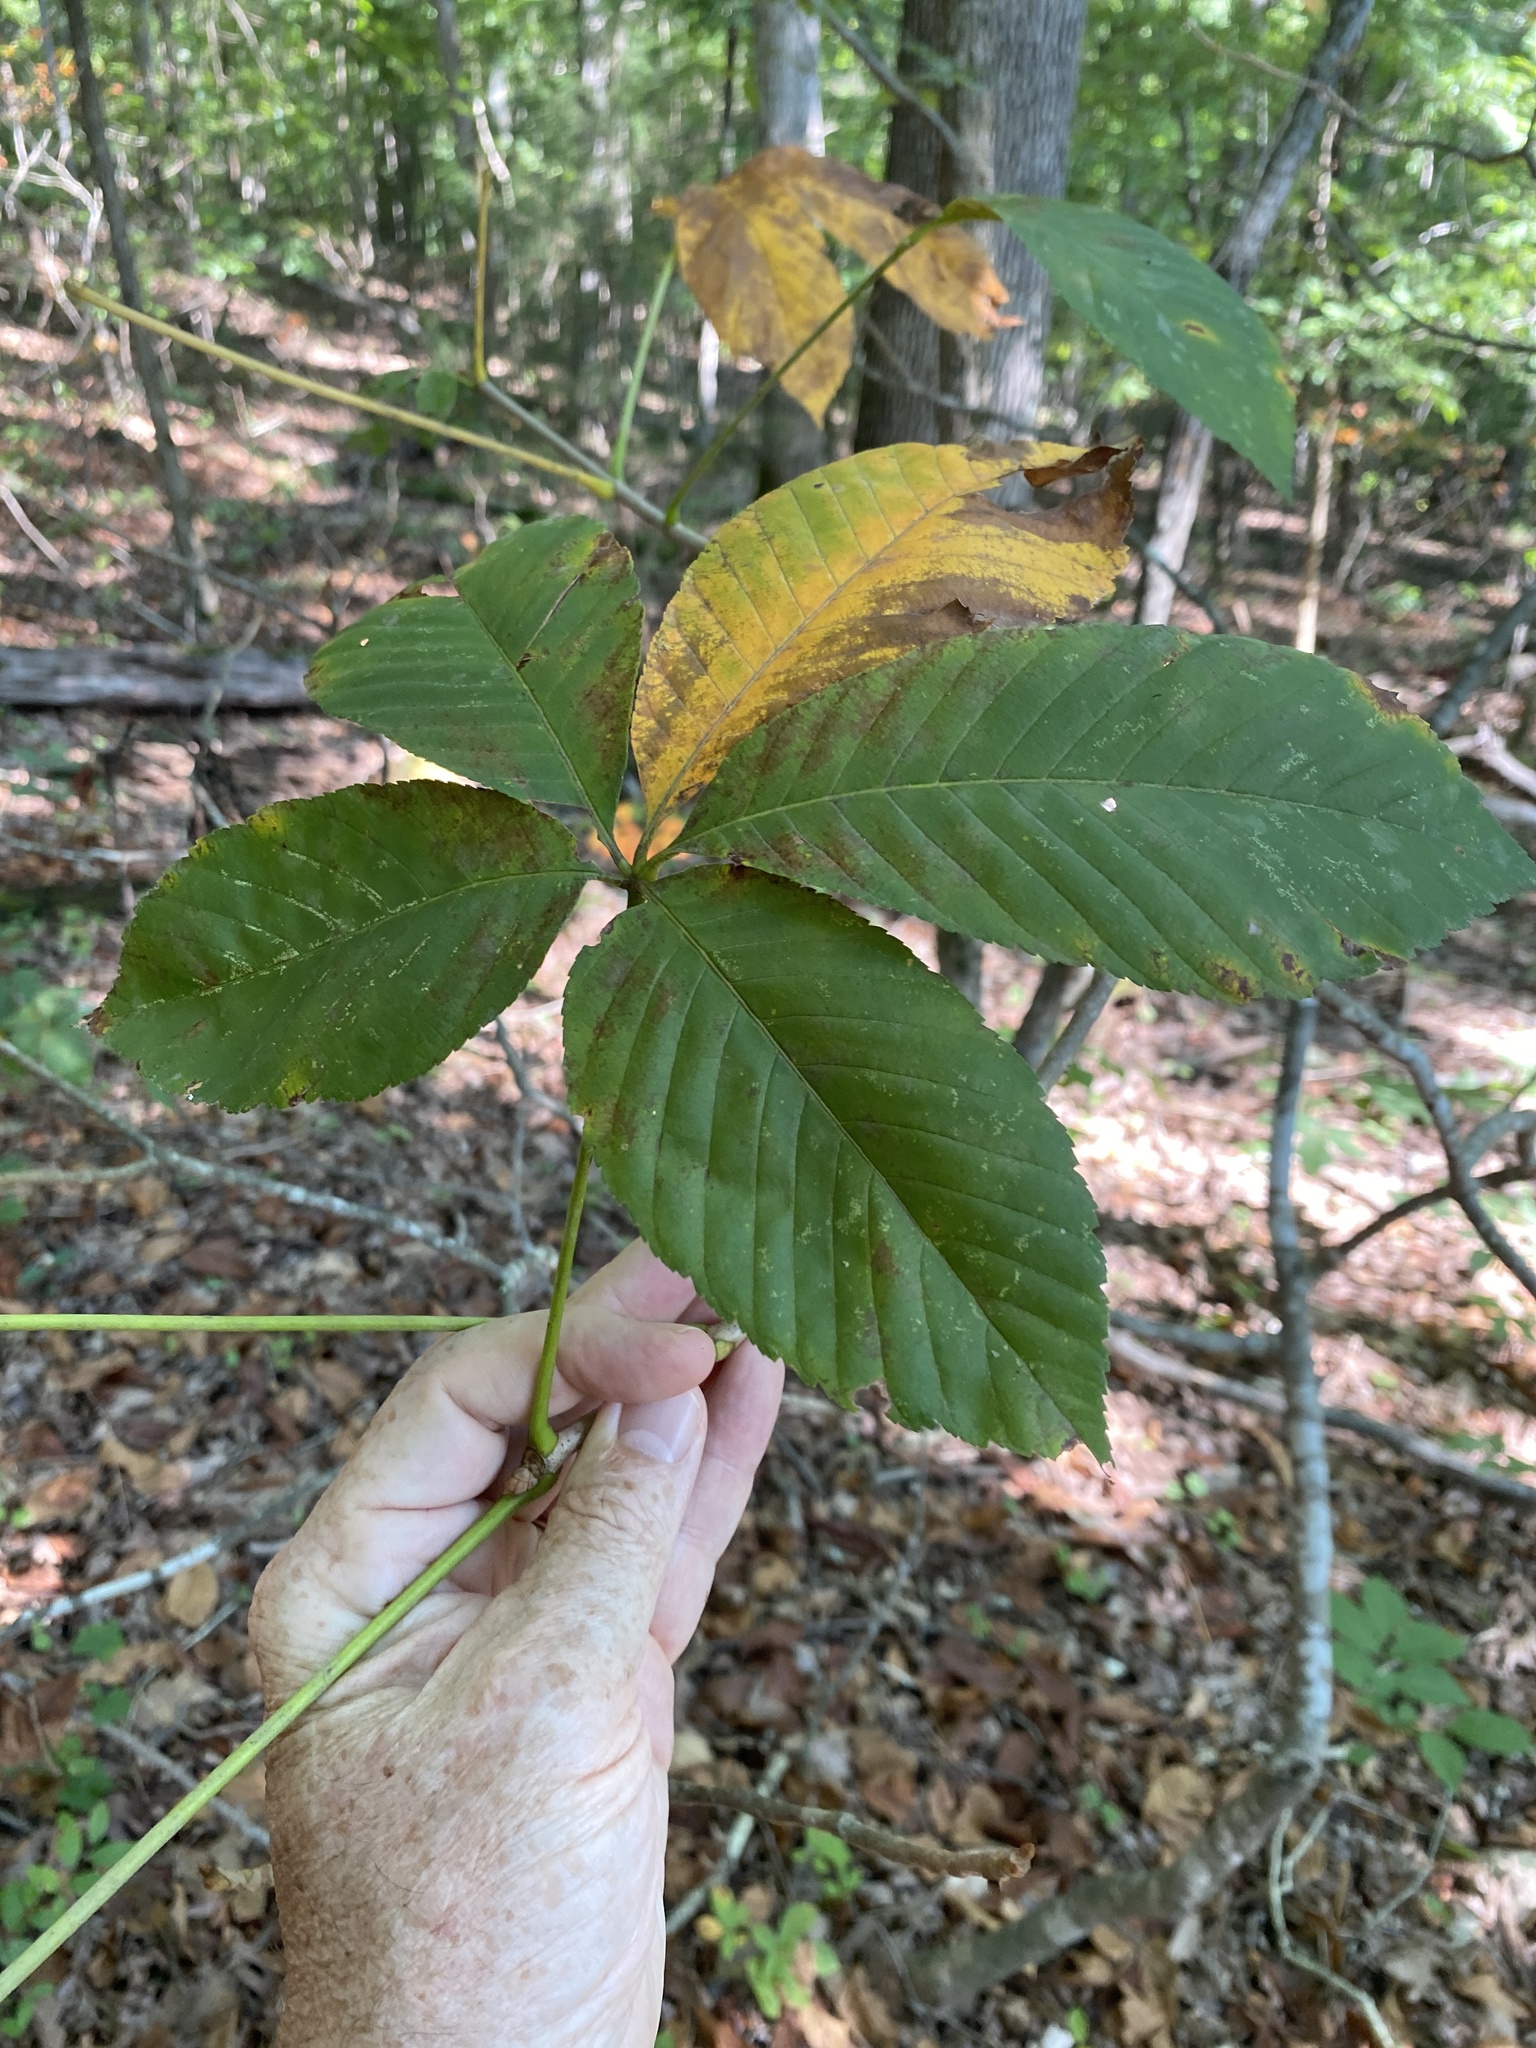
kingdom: Plantae
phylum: Tracheophyta
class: Magnoliopsida
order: Sapindales
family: Sapindaceae
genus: Aesculus
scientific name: Aesculus sylvatica
